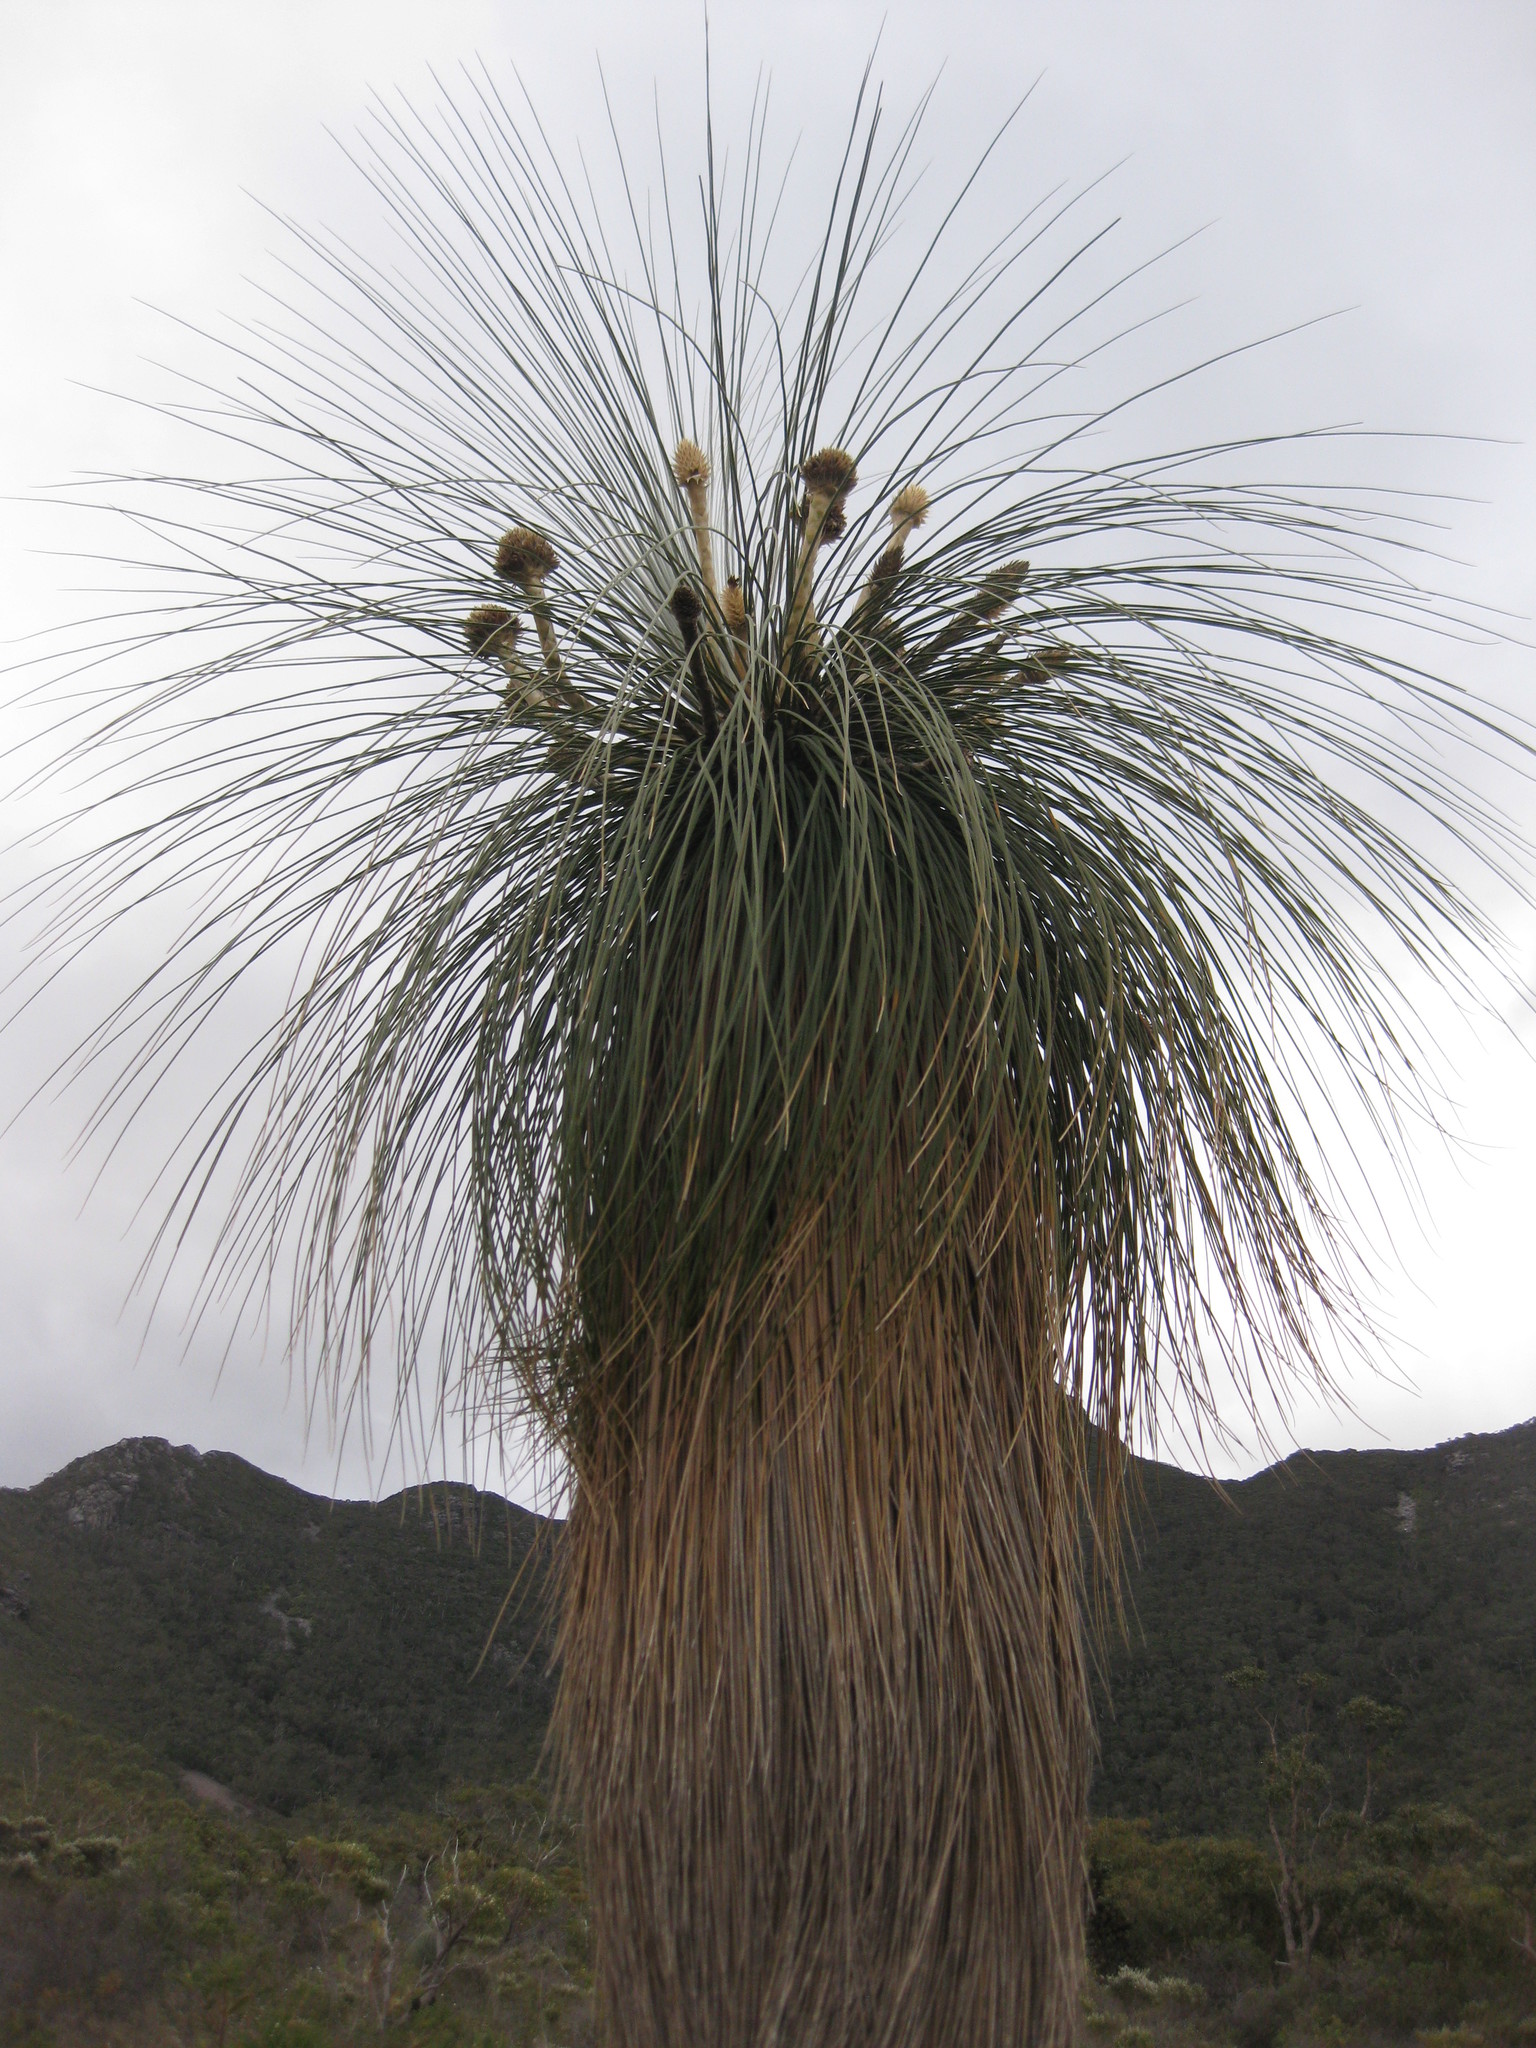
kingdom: Plantae
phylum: Tracheophyta
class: Liliopsida
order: Arecales
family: Dasypogonaceae
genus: Kingia
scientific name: Kingia australis
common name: Black gin
